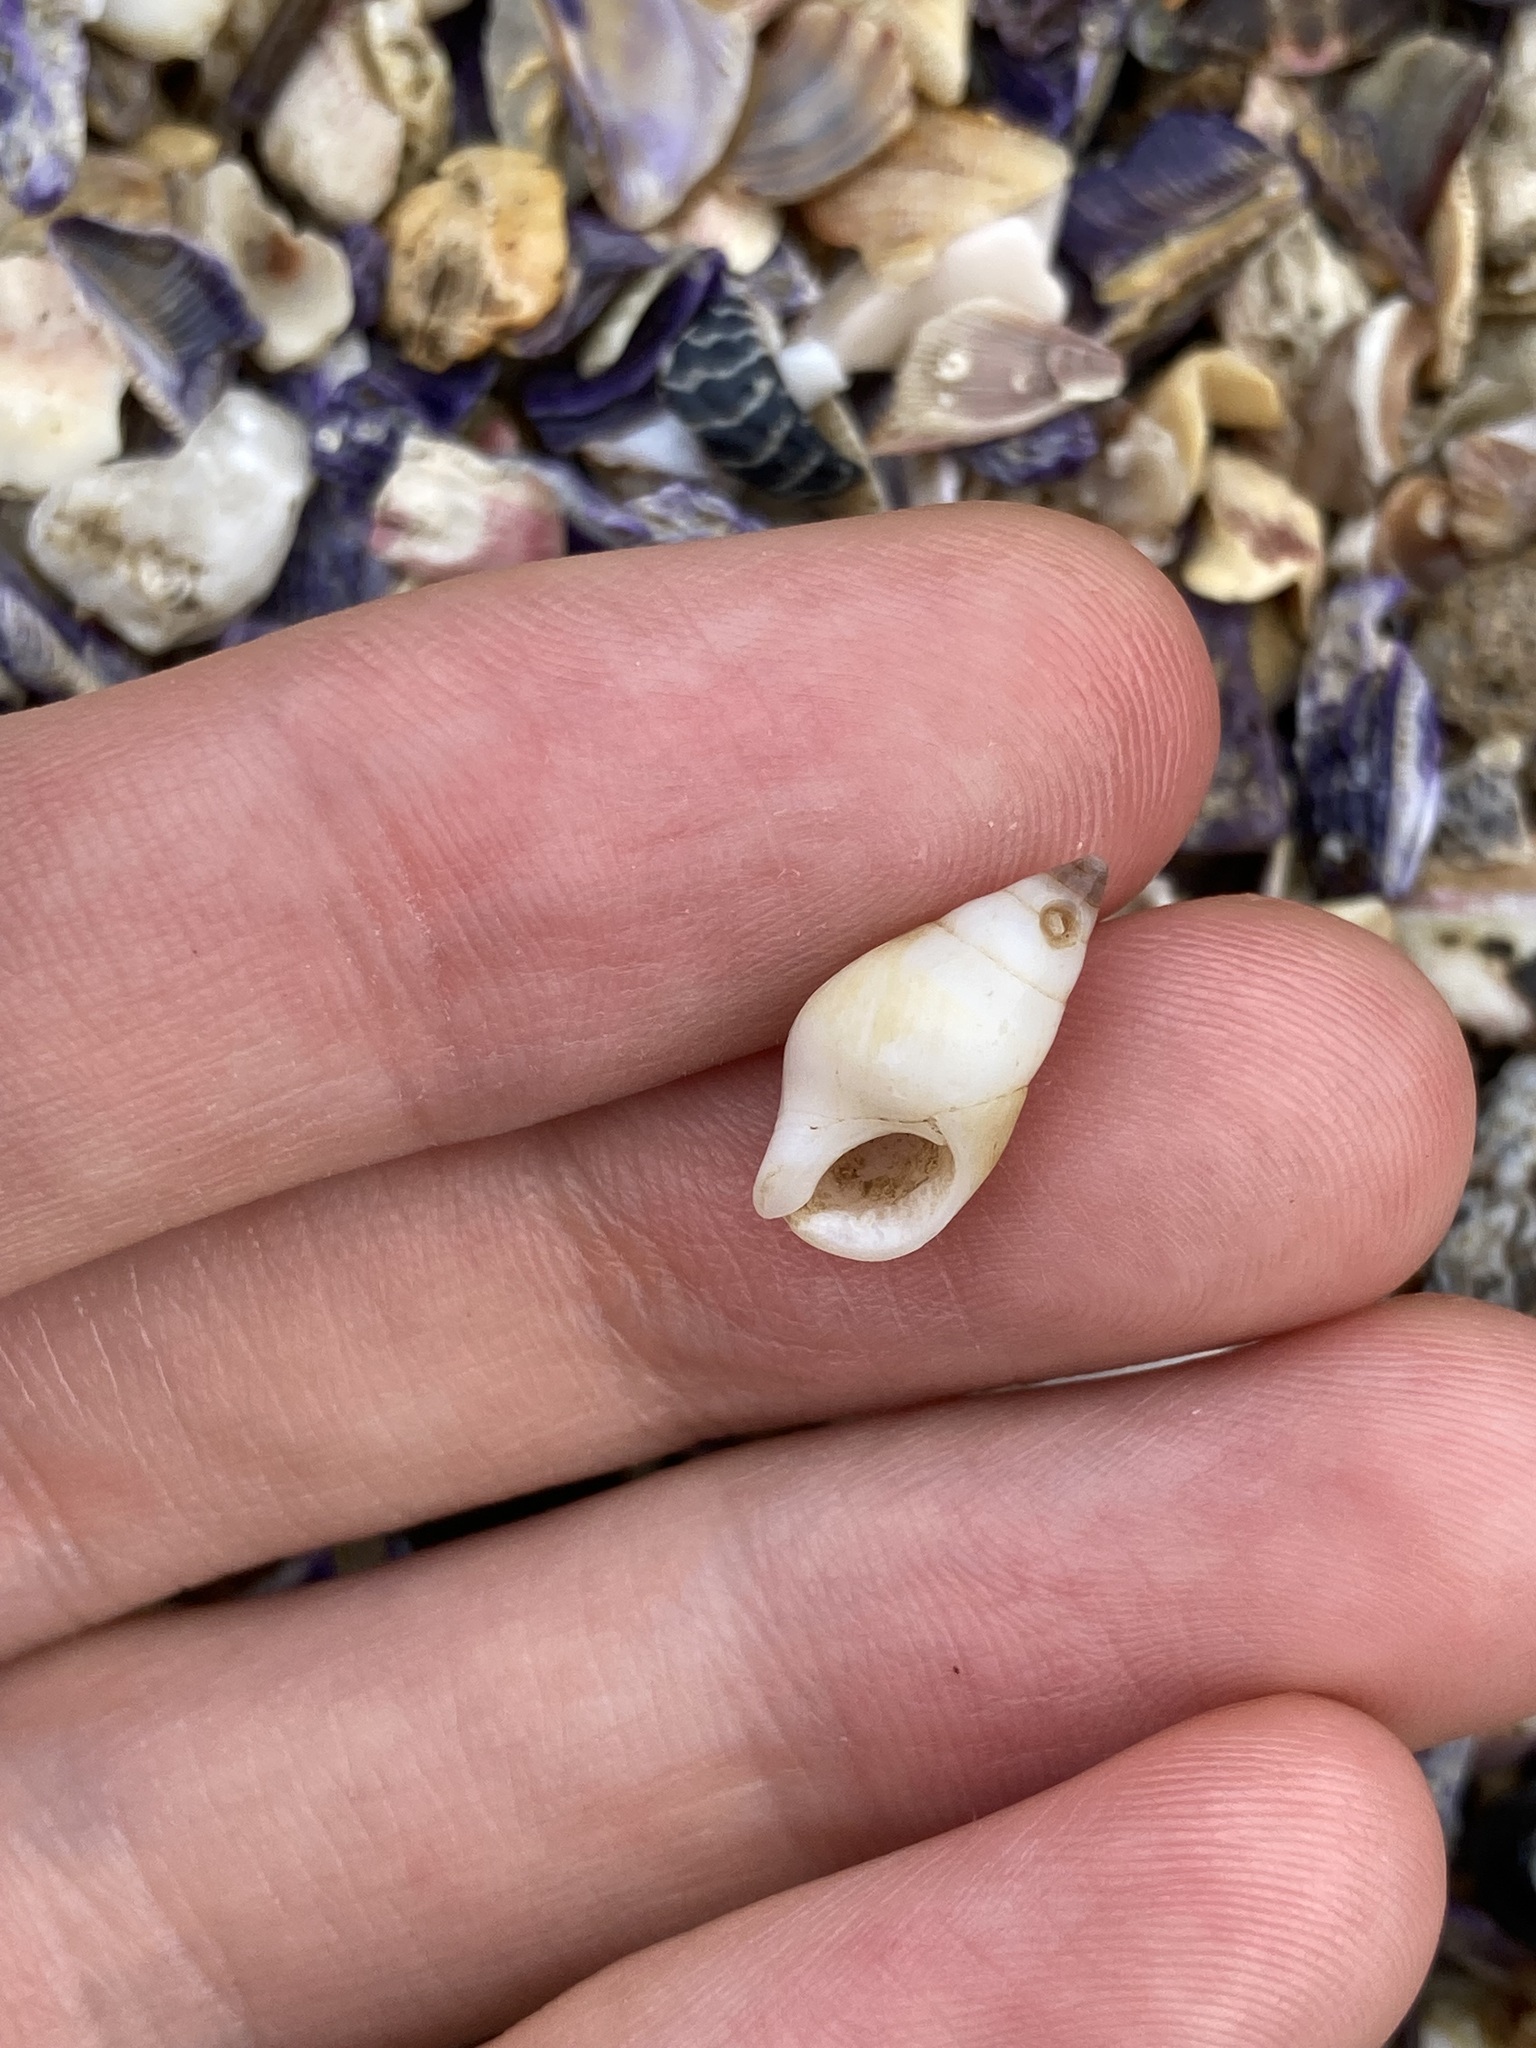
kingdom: Animalia
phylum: Mollusca
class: Gastropoda
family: Planaxidae
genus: Hinea
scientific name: Hinea brasiliana
